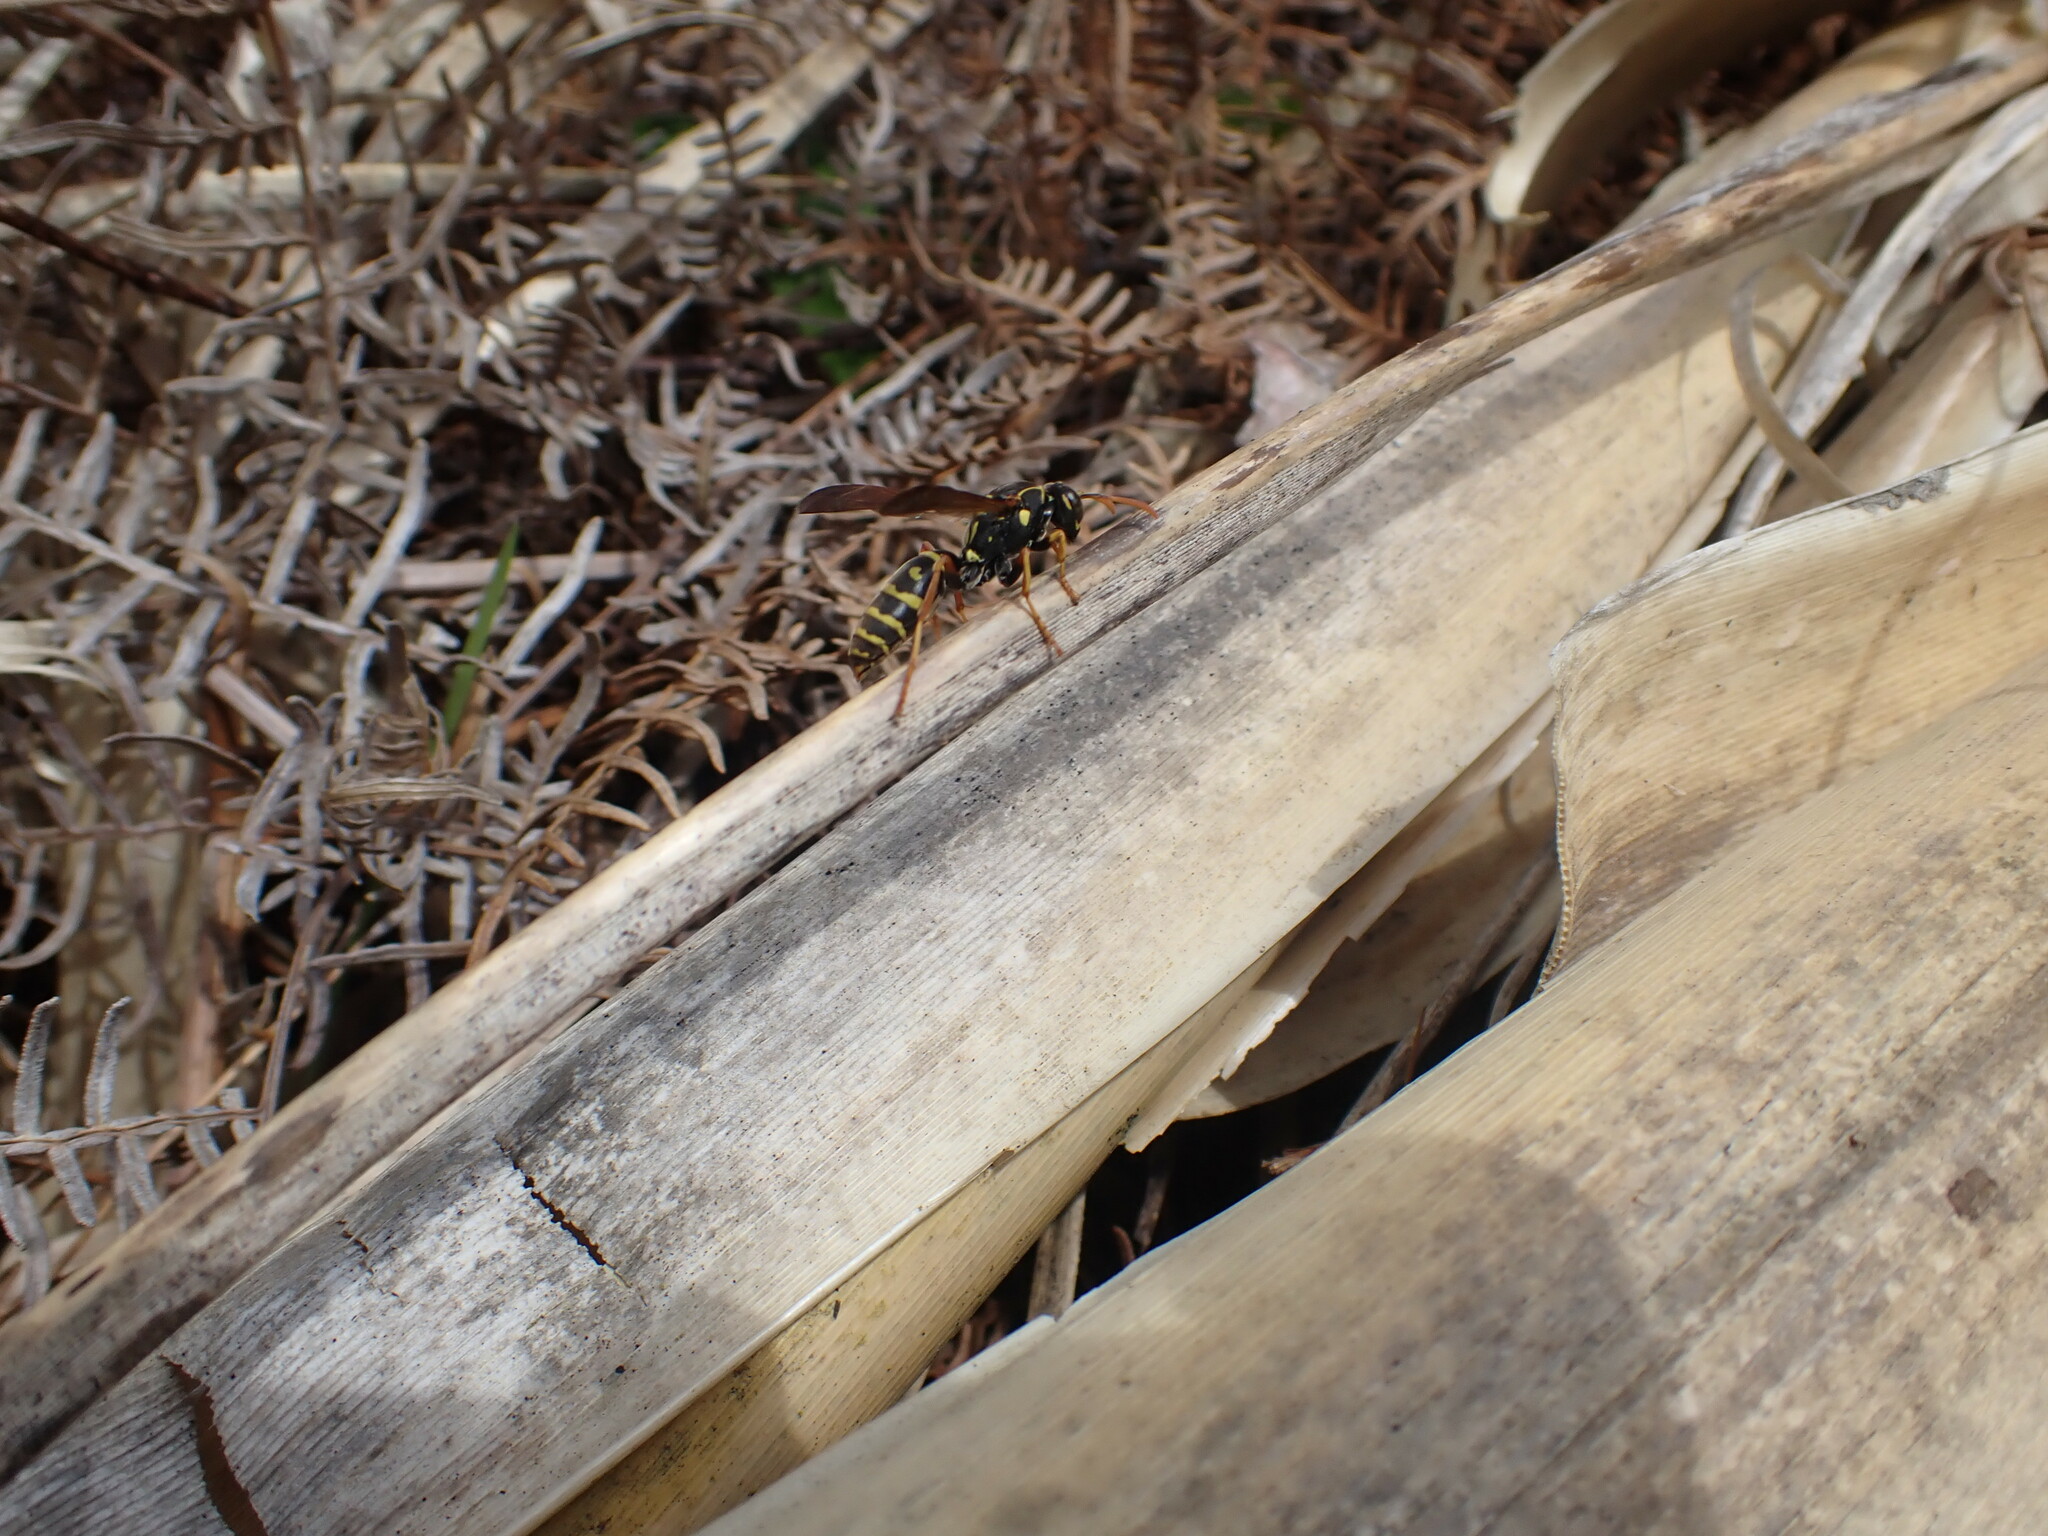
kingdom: Animalia
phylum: Arthropoda
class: Insecta
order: Hymenoptera
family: Eumenidae
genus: Polistes
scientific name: Polistes chinensis
